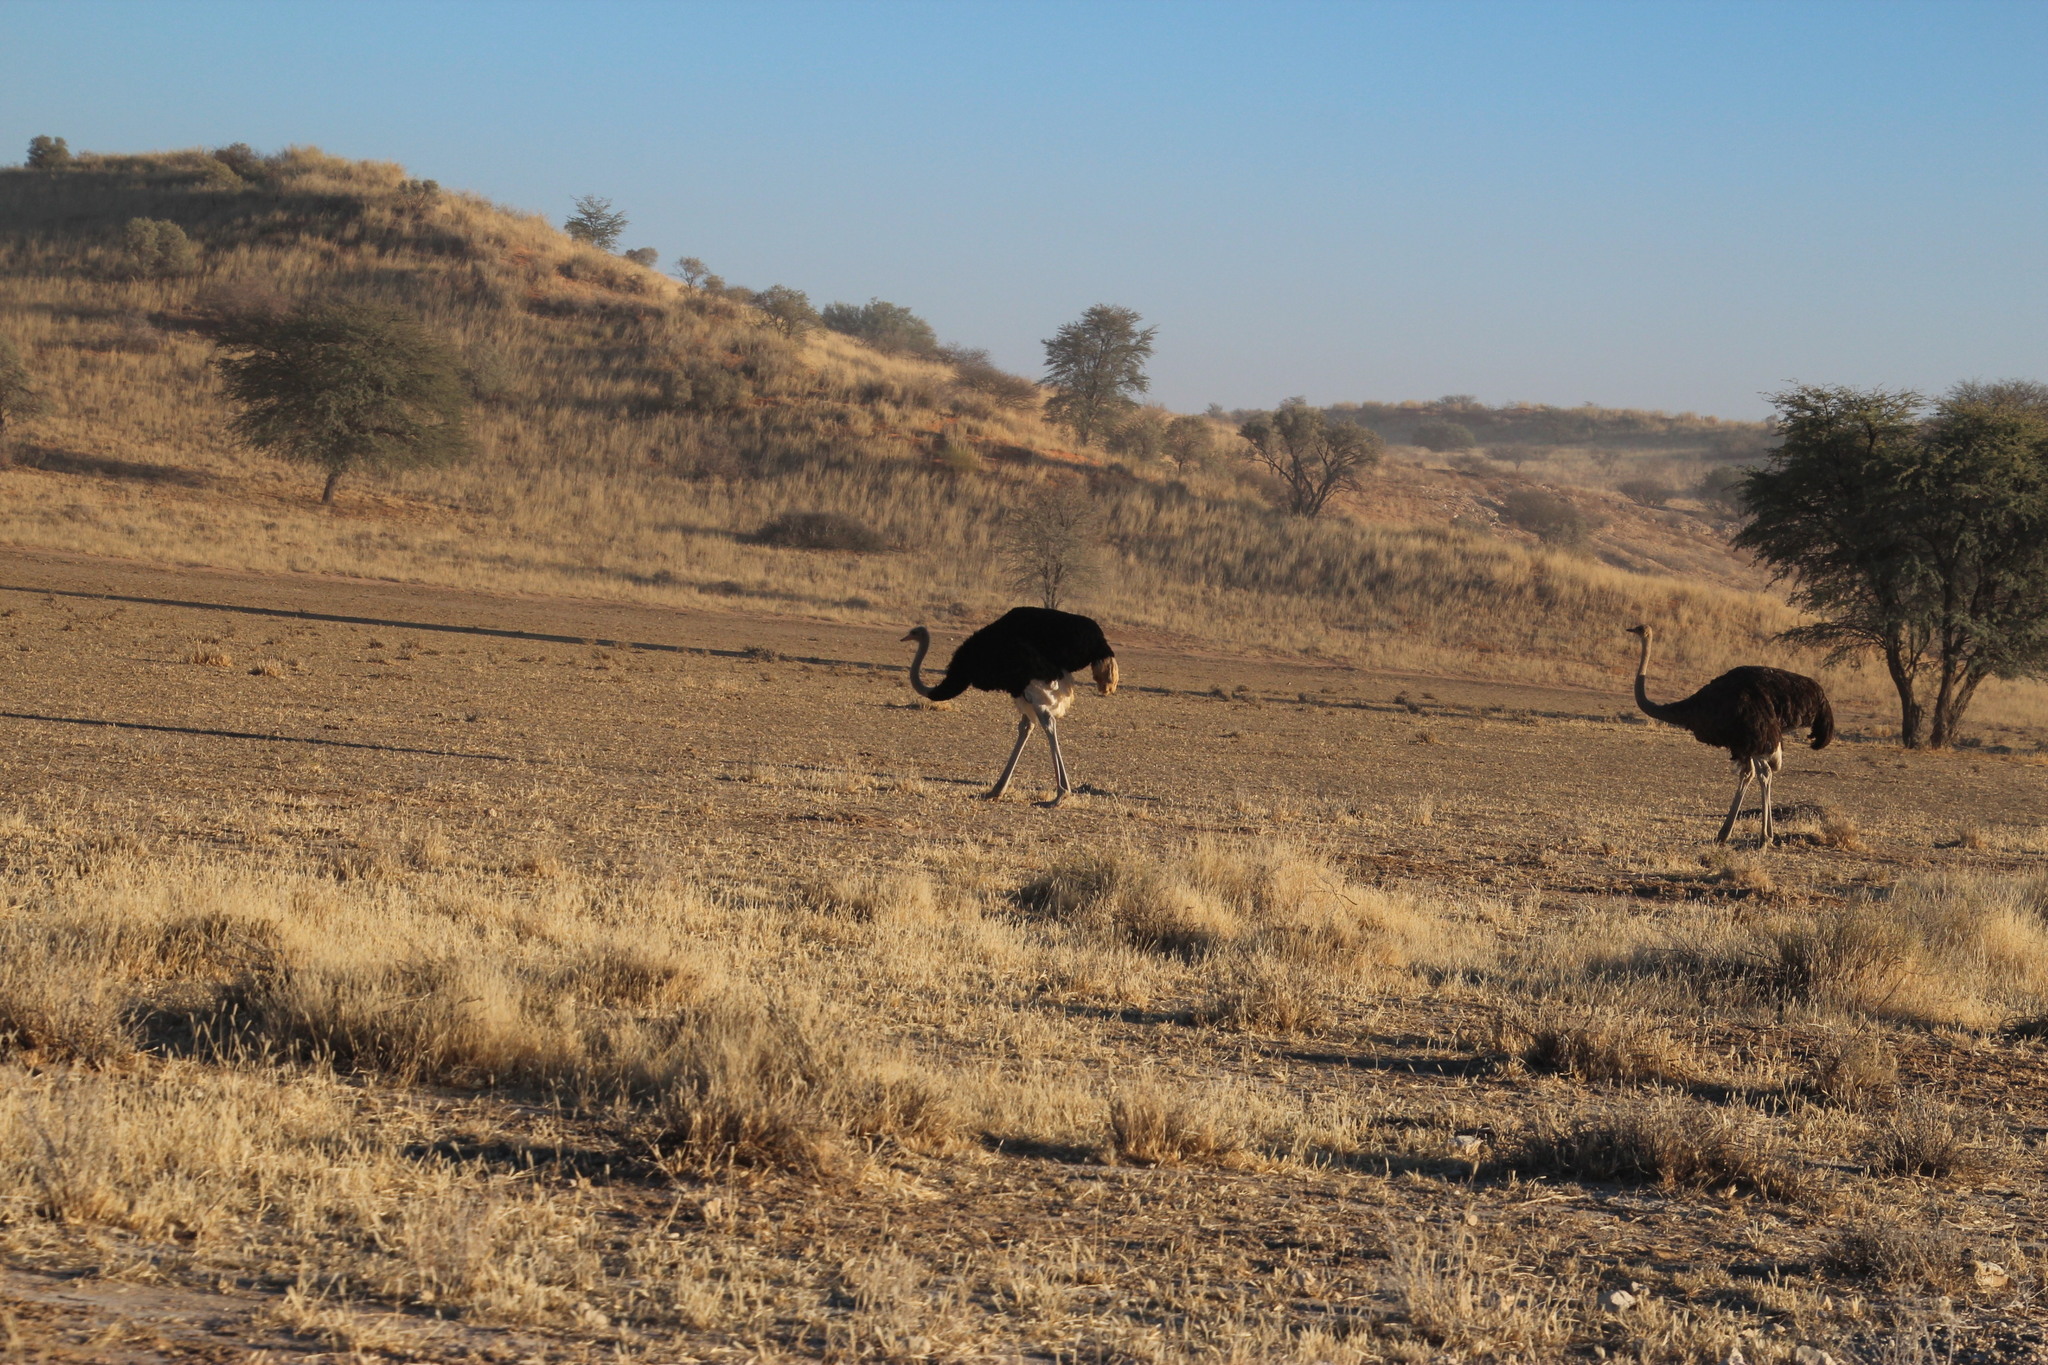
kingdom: Animalia
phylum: Chordata
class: Aves
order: Struthioniformes
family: Struthionidae
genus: Struthio
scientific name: Struthio camelus
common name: Common ostrich
